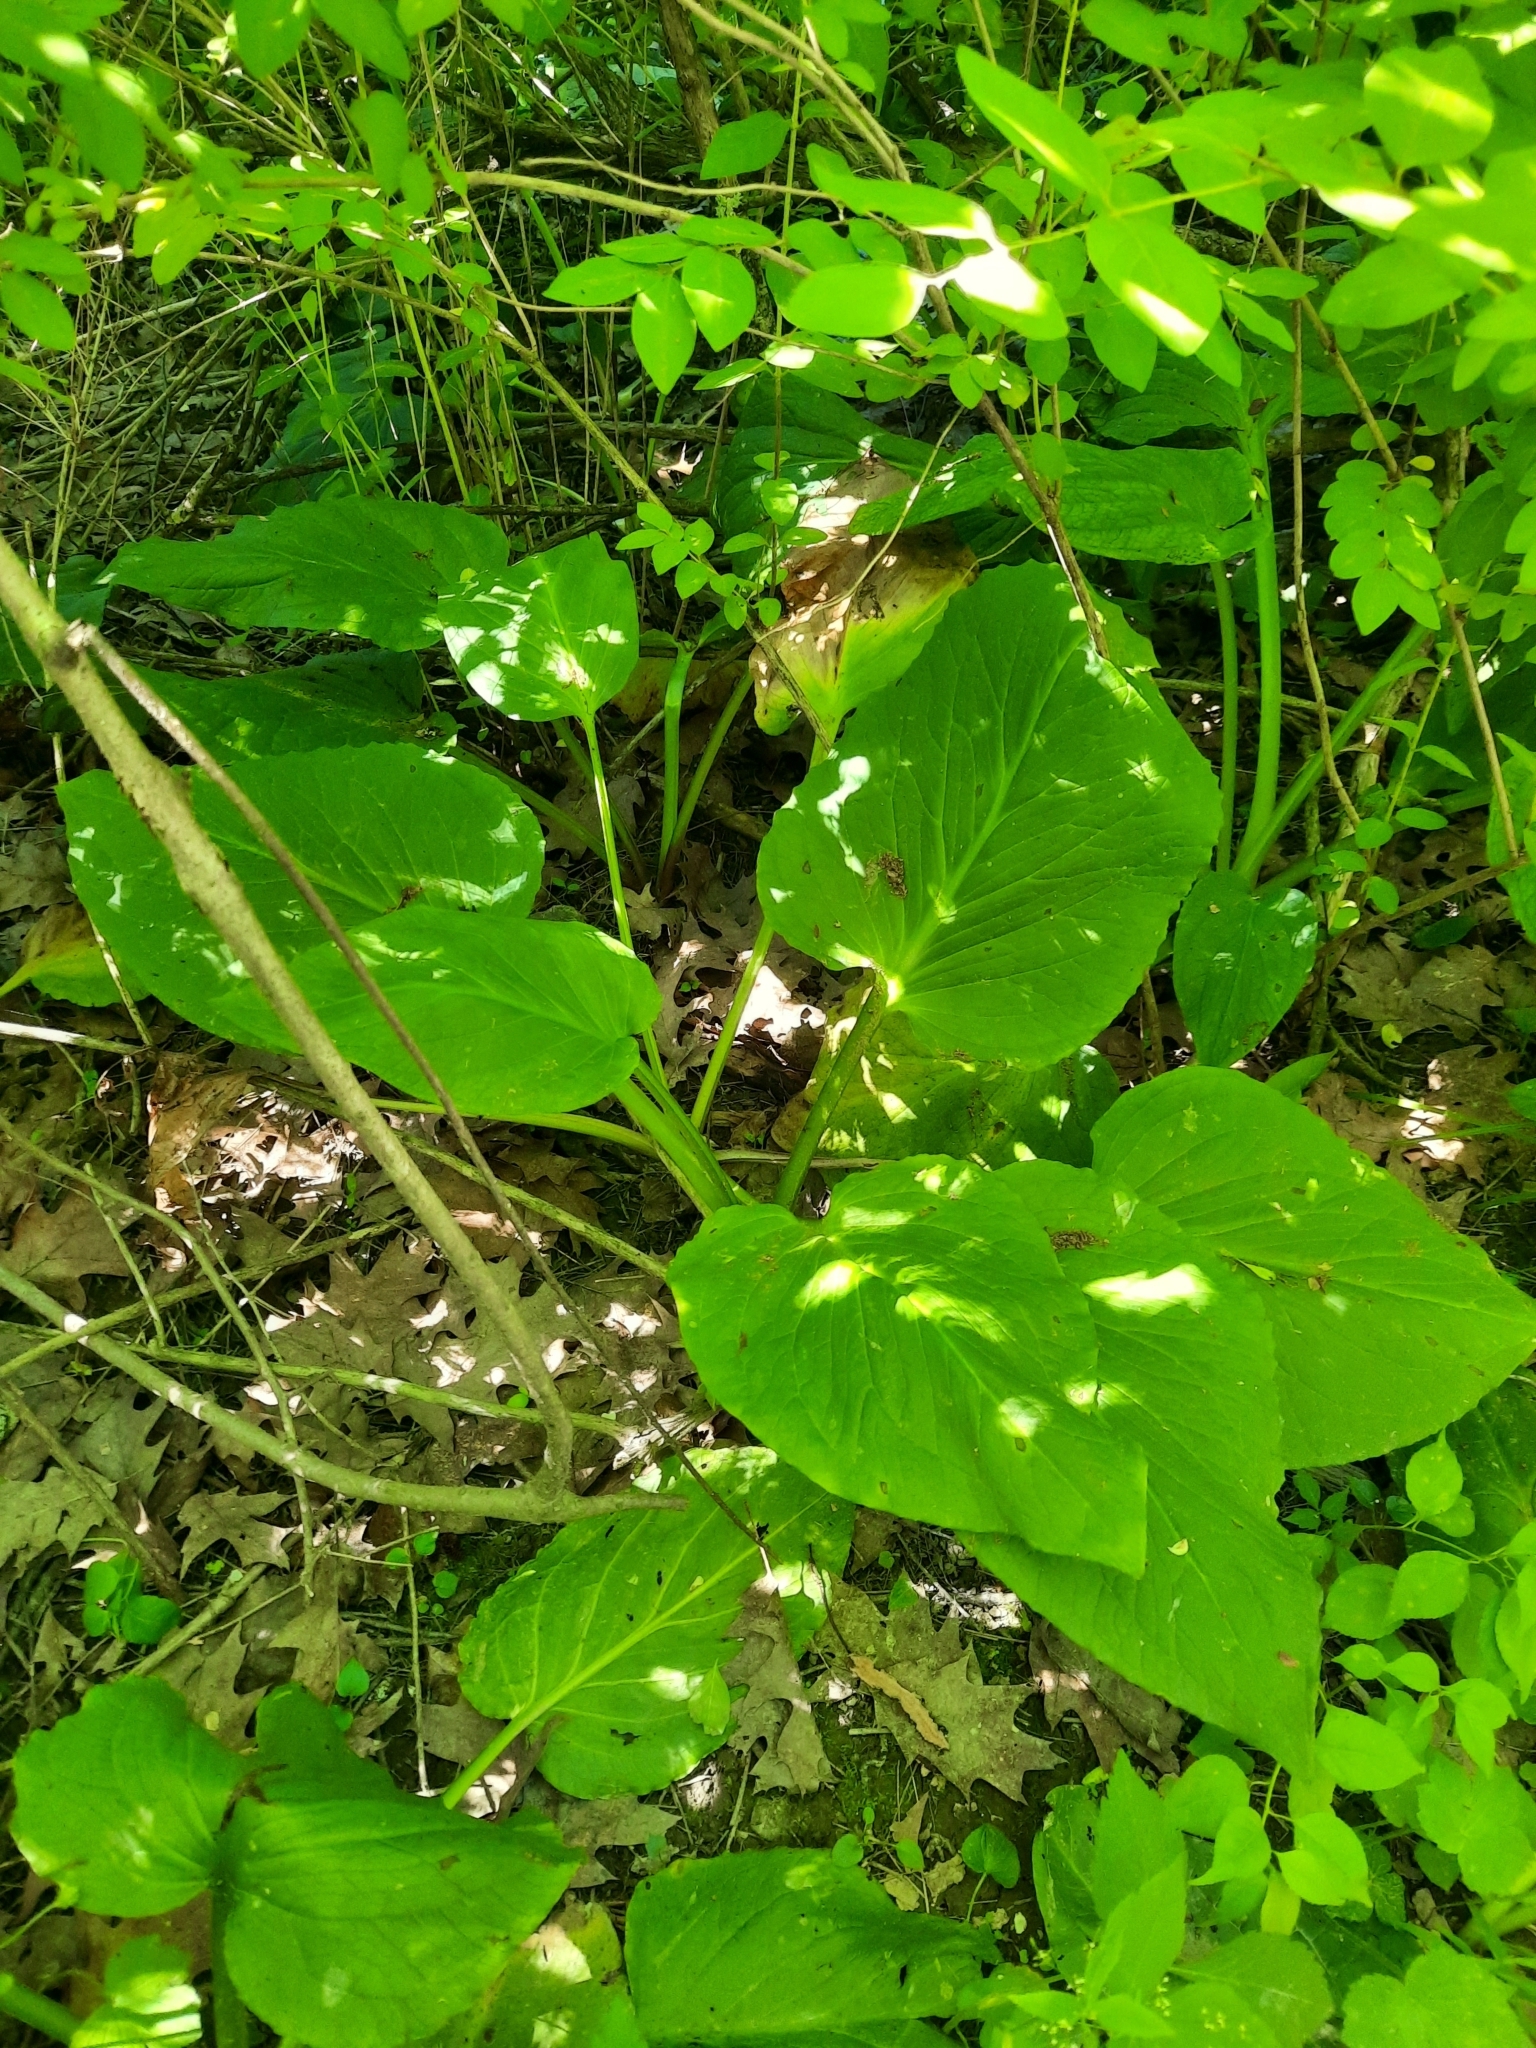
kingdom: Plantae
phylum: Tracheophyta
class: Liliopsida
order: Alismatales
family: Araceae
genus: Symplocarpus
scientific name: Symplocarpus foetidus
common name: Eastern skunk cabbage
